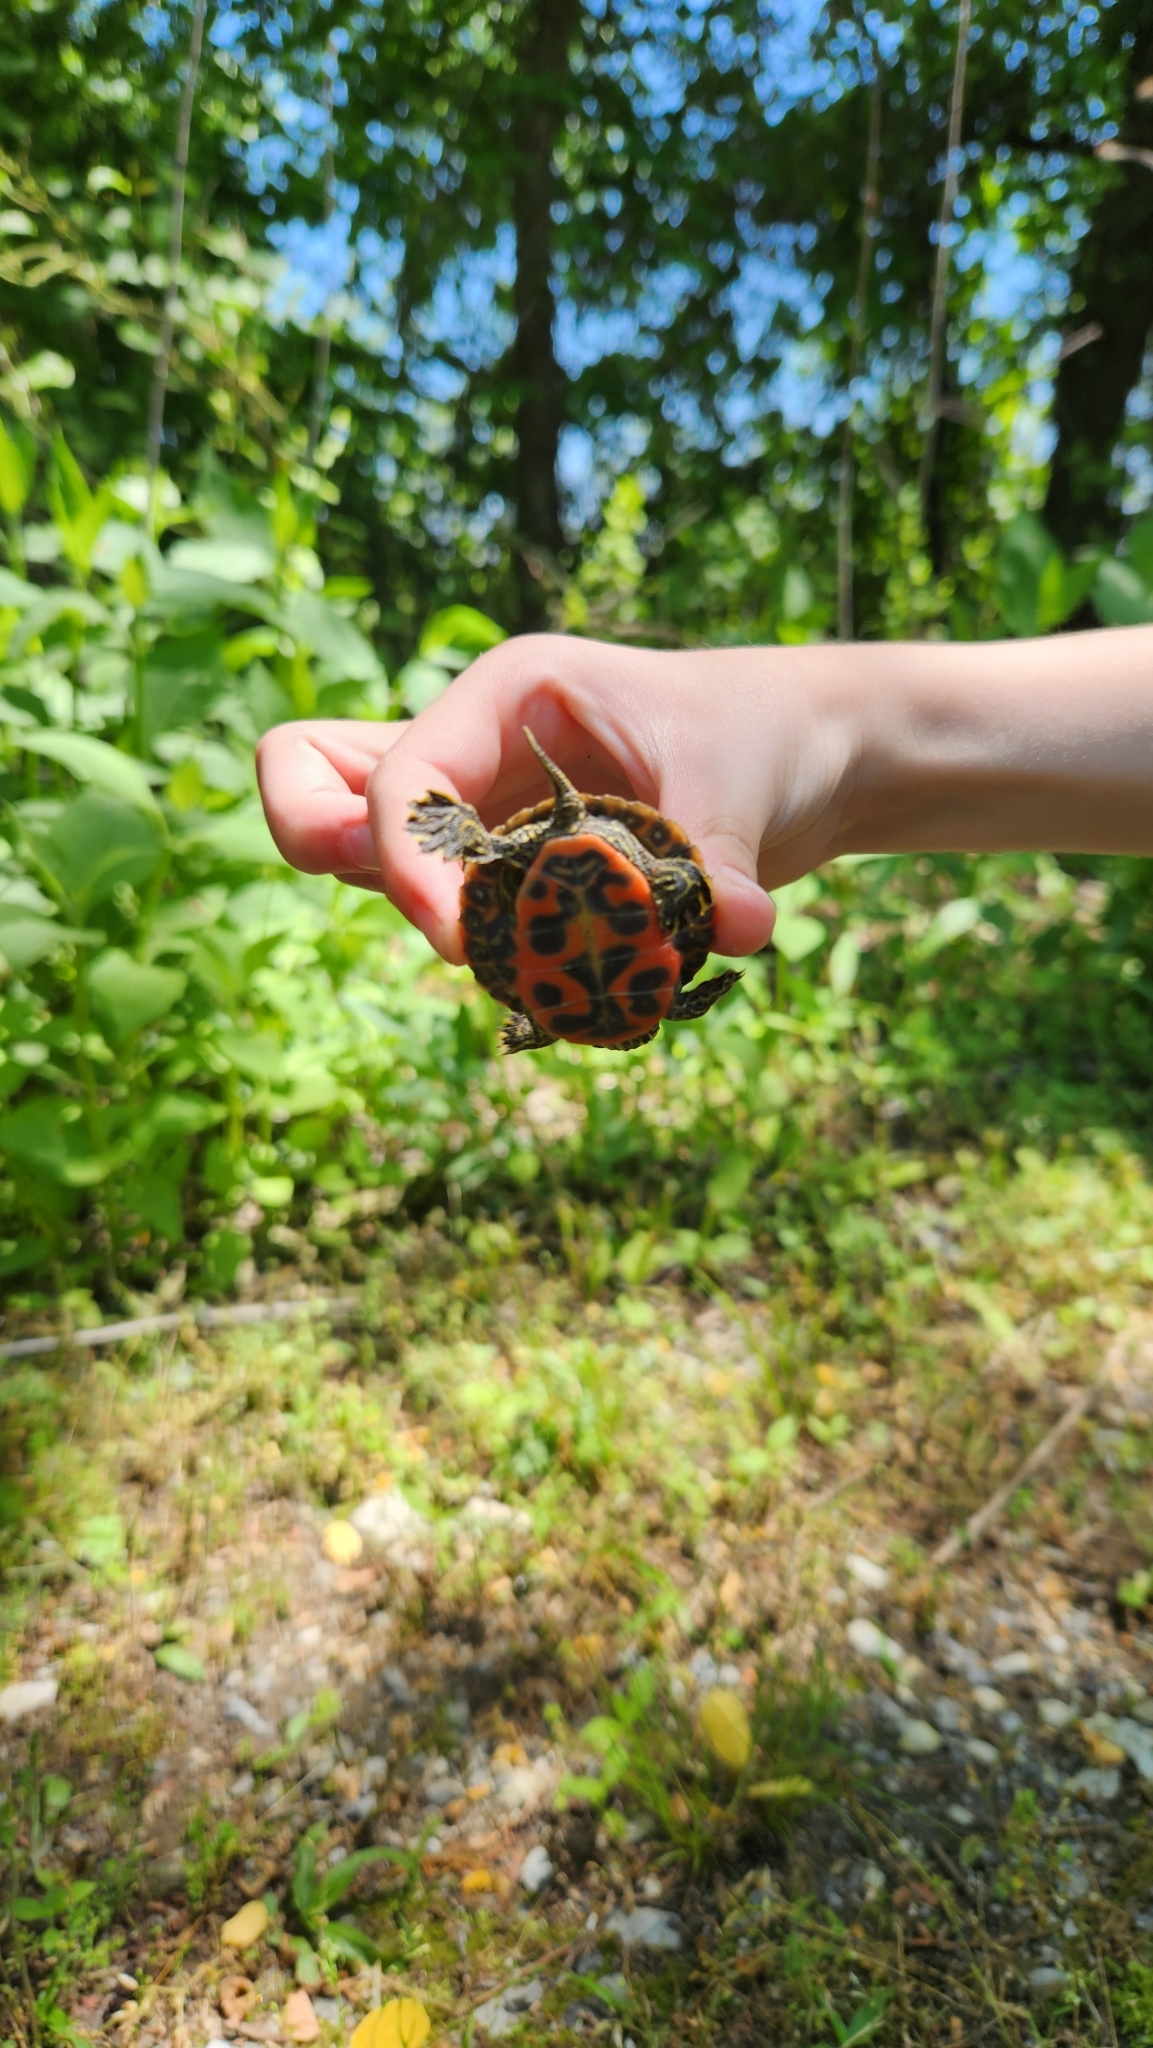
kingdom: Animalia
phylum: Chordata
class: Testudines
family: Emydidae
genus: Pseudemys
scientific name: Pseudemys rubriventris
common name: American red-bellied turtle
